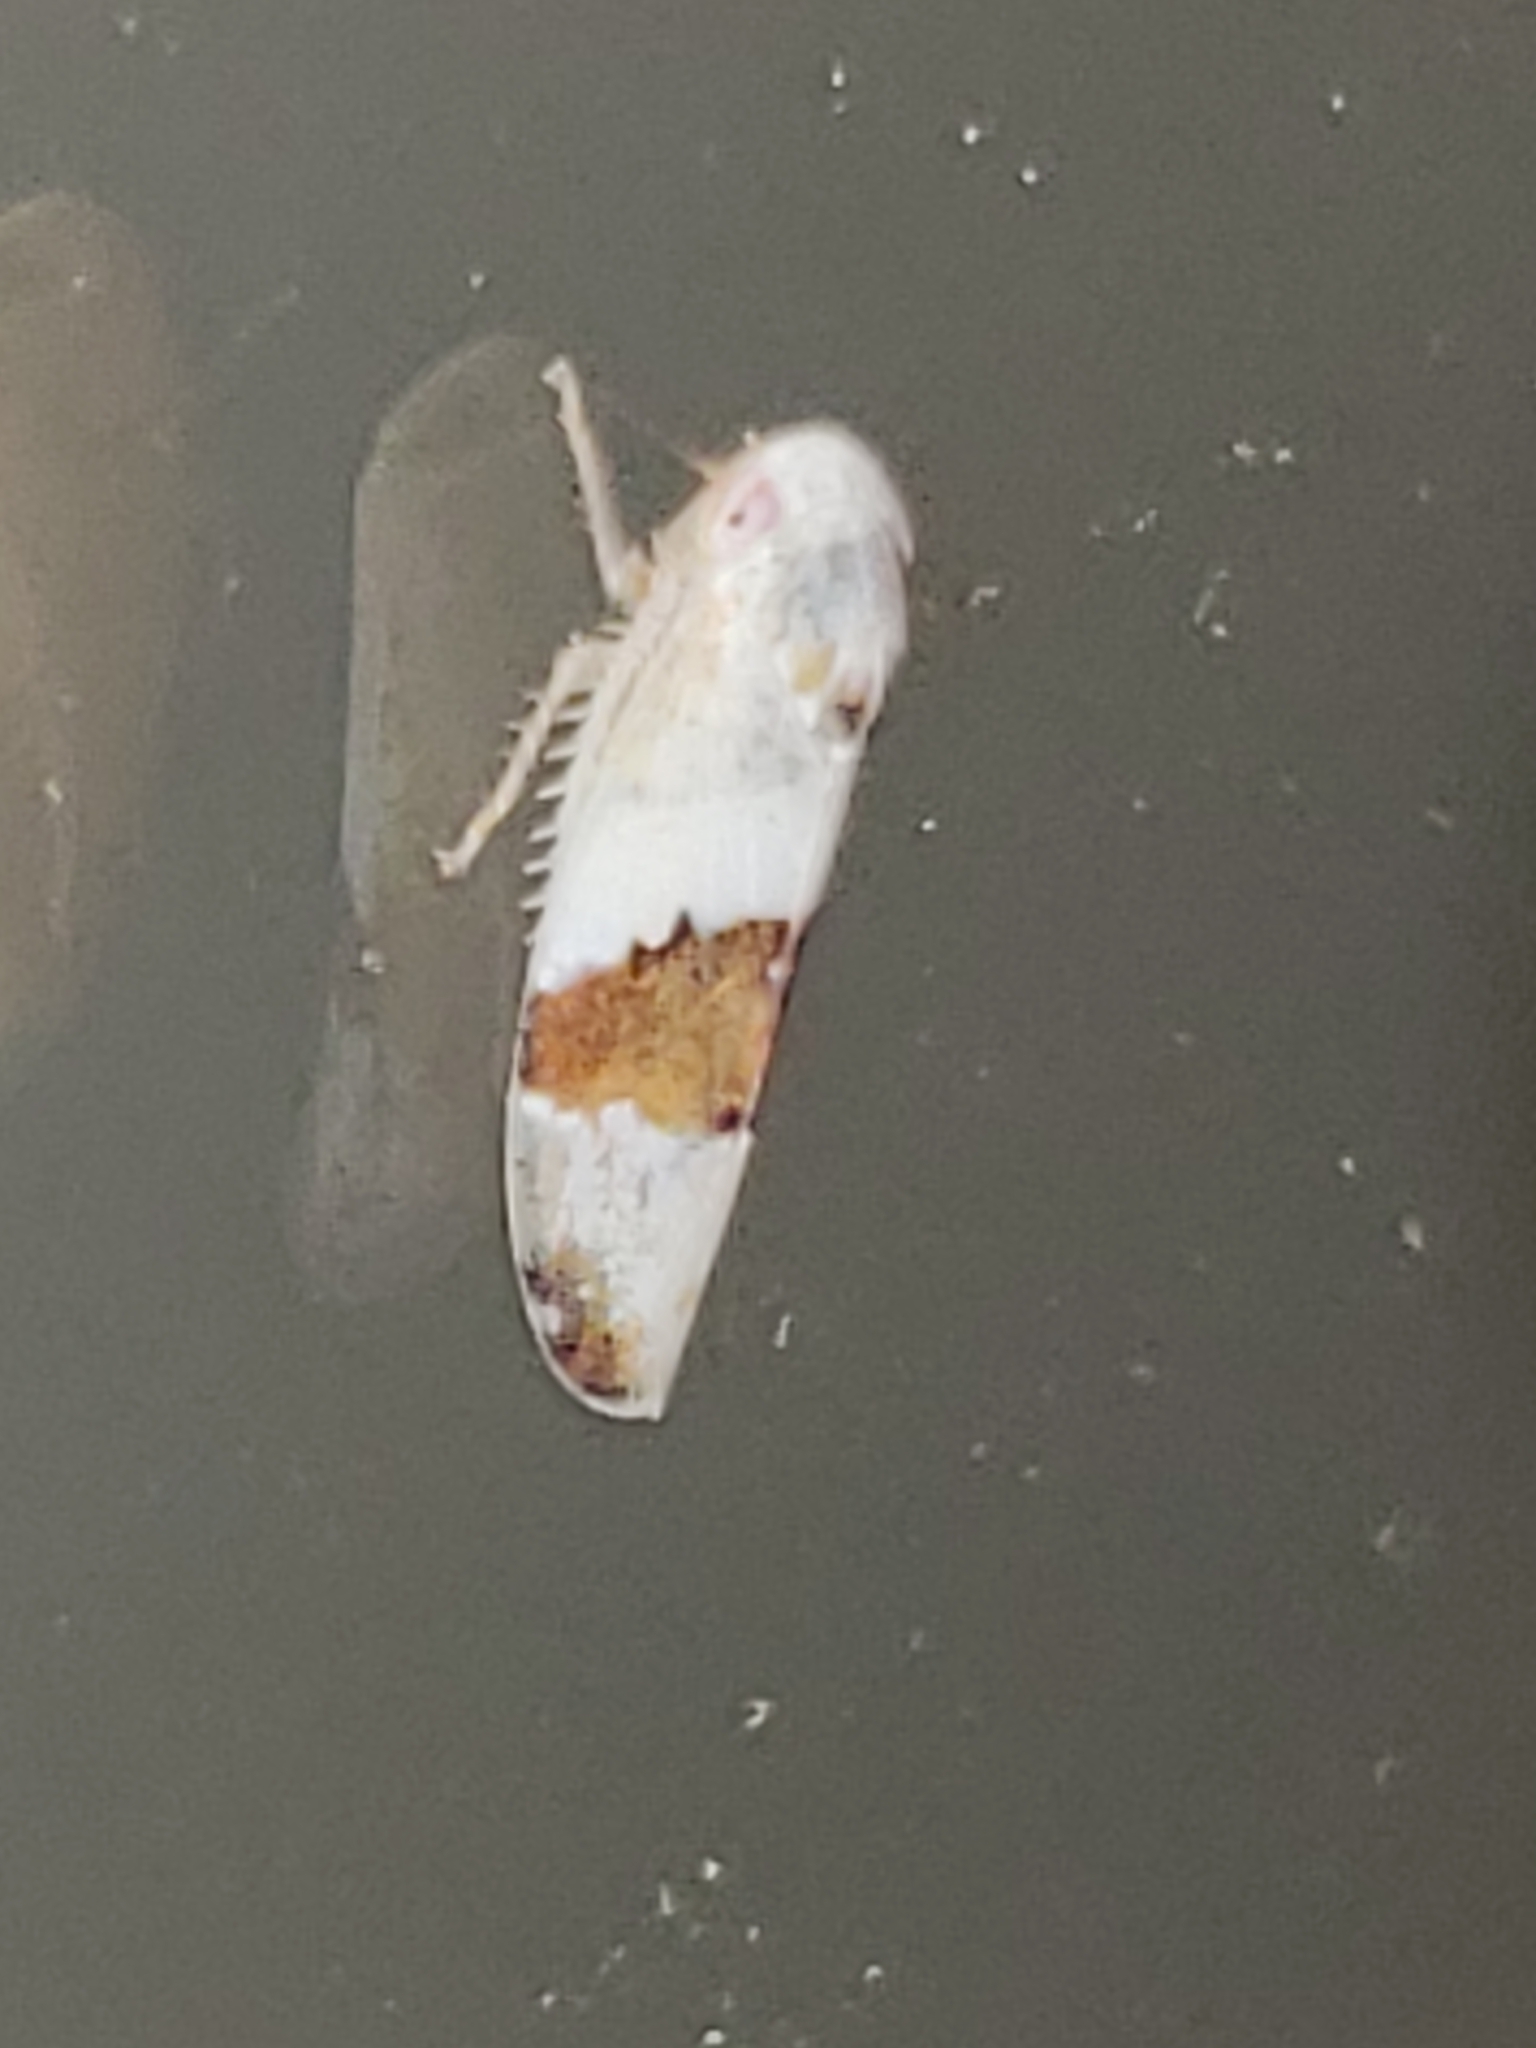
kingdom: Animalia
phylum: Arthropoda
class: Insecta
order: Hemiptera
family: Cicadellidae
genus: Norvellina
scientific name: Norvellina seminuda
